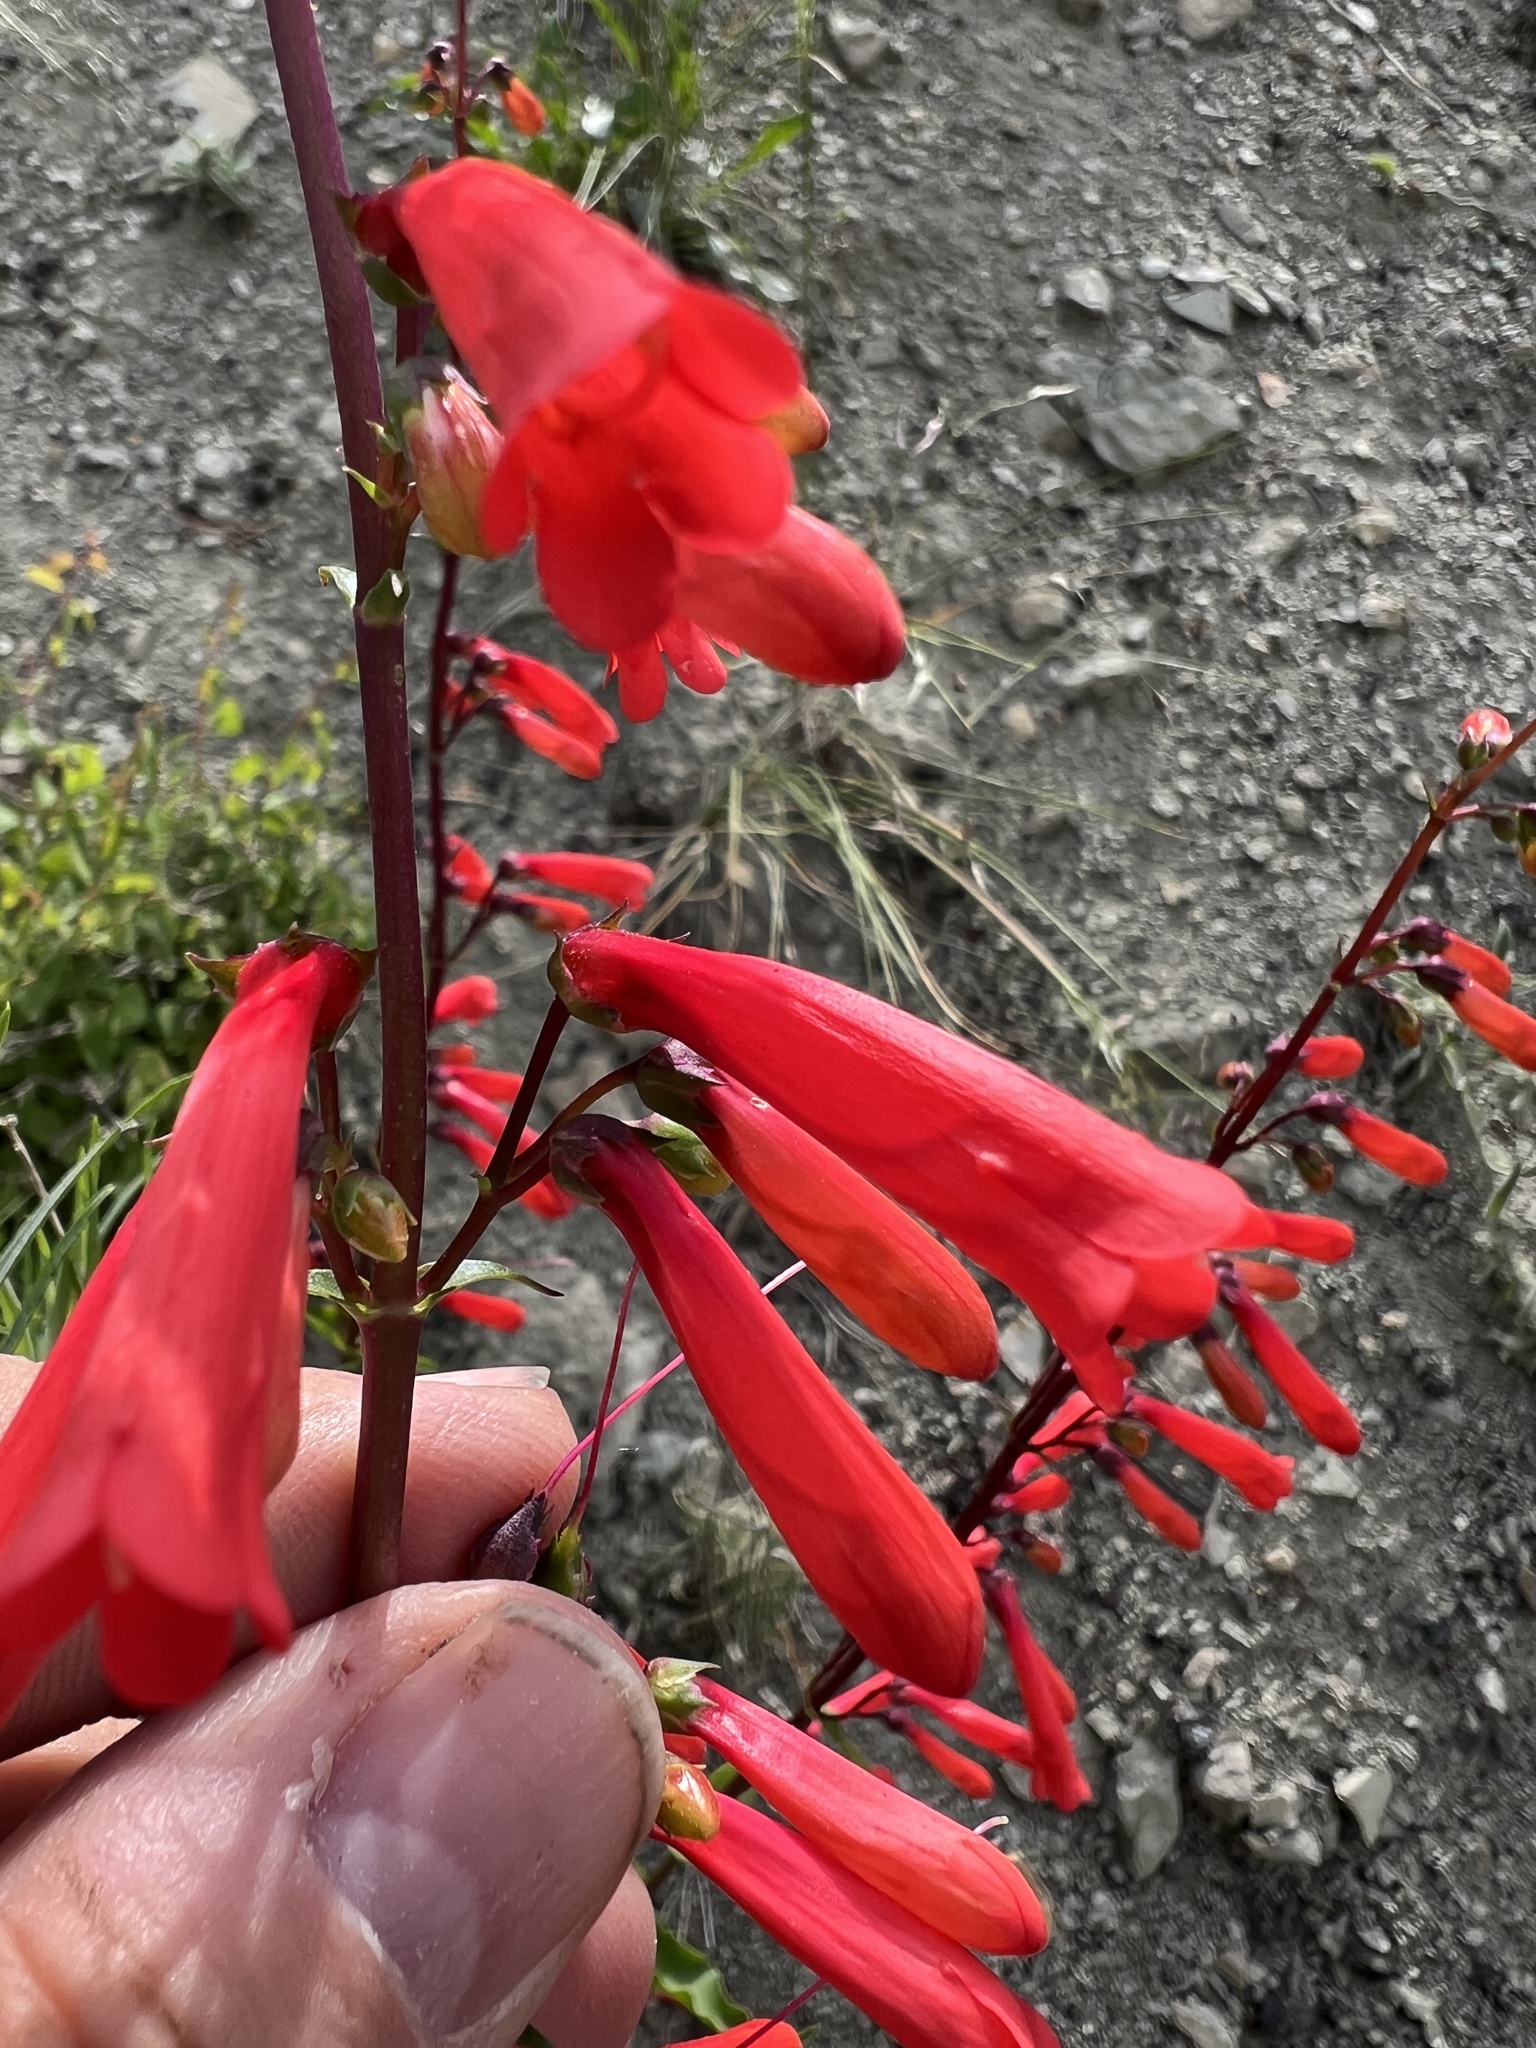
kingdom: Plantae
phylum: Tracheophyta
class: Magnoliopsida
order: Lamiales
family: Plantaginaceae
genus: Penstemon
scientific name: Penstemon eatonii
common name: Eaton's penstemon
